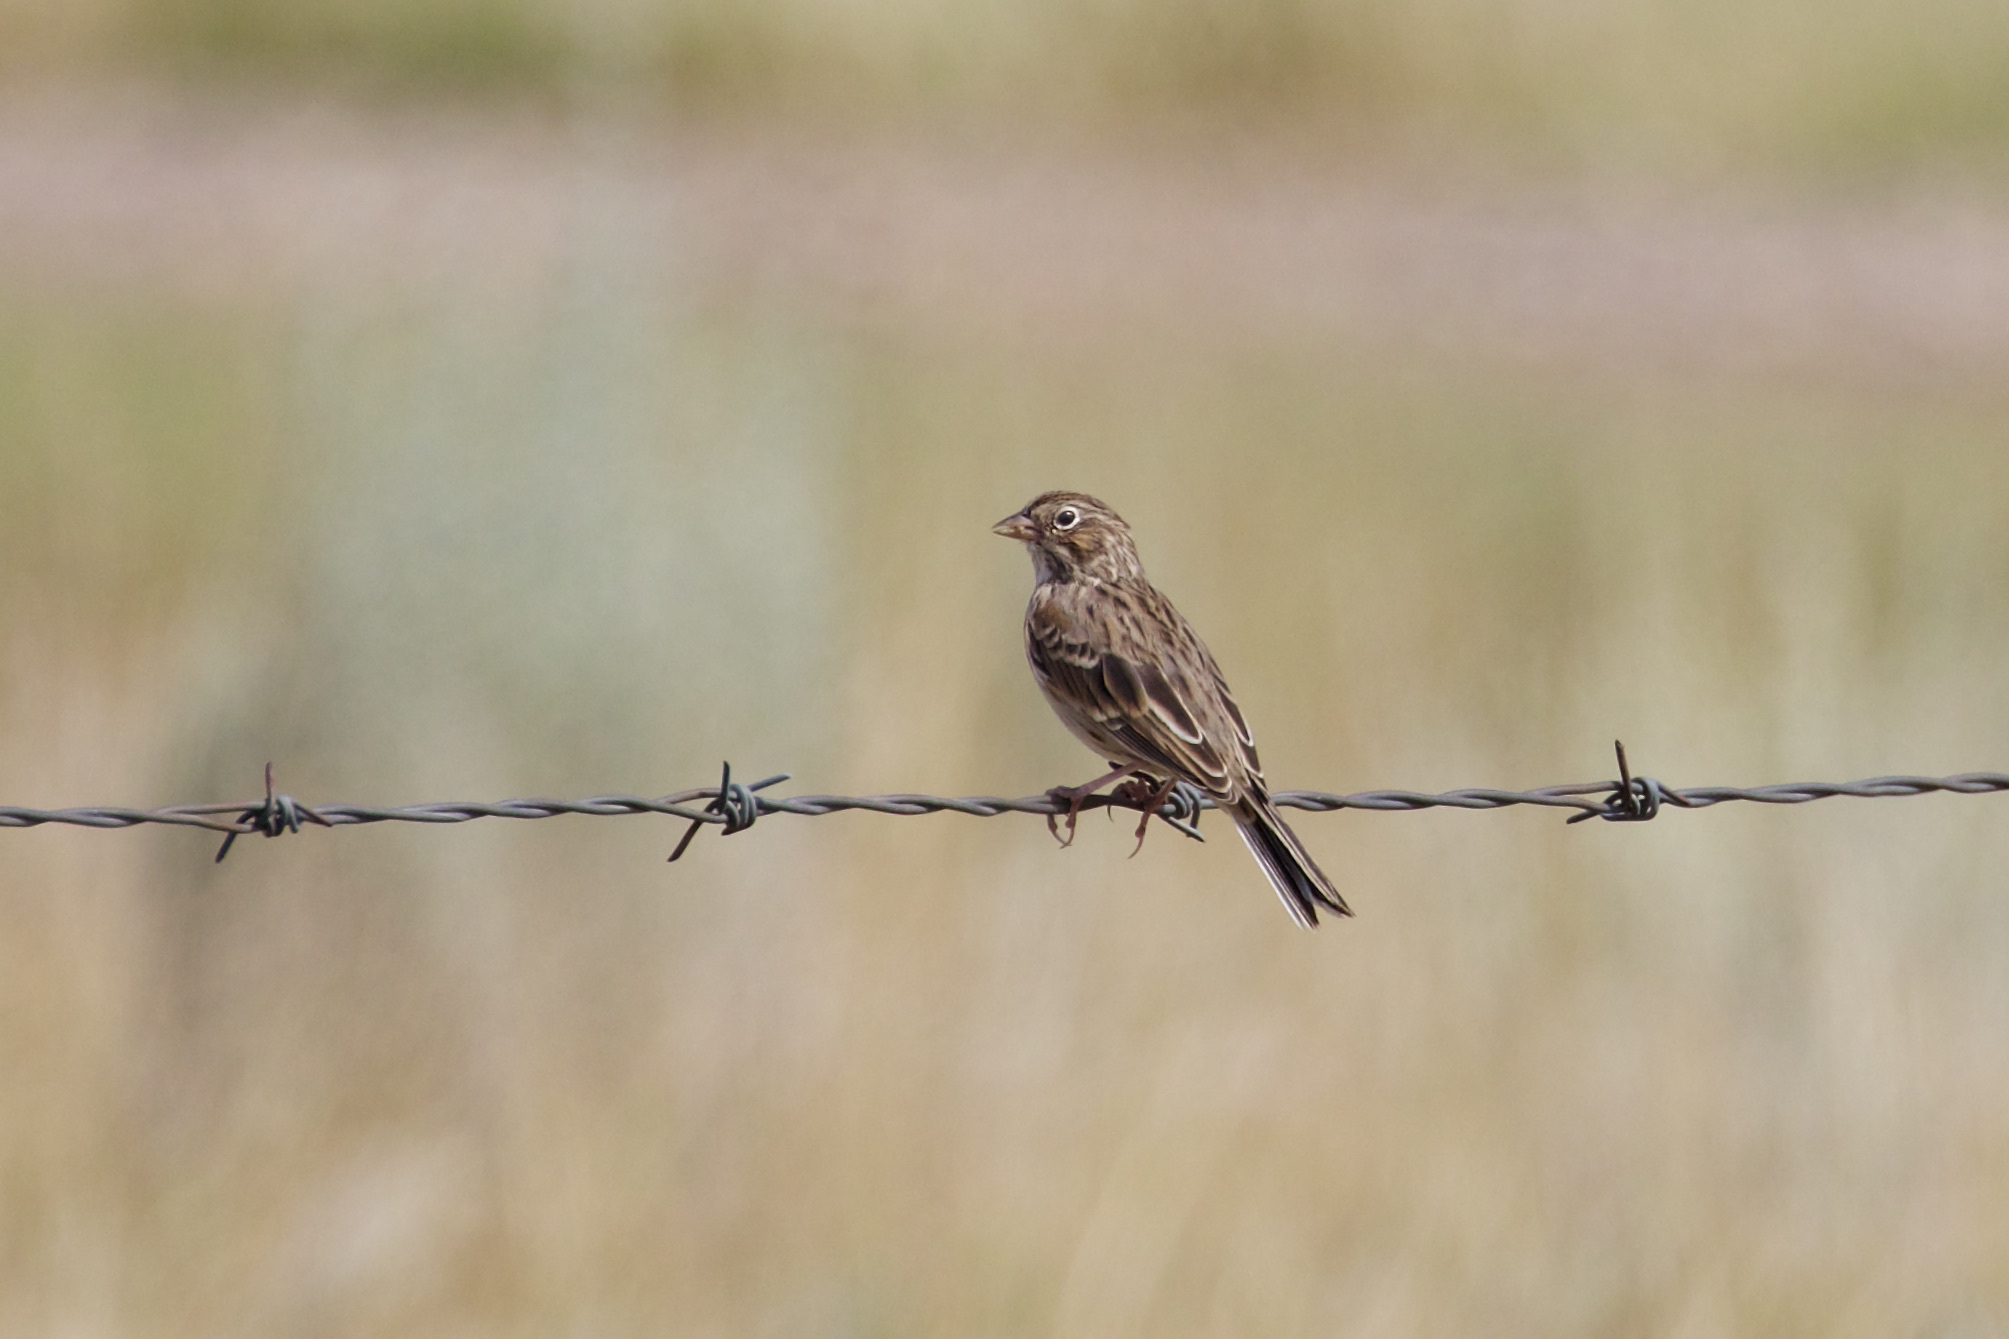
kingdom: Animalia
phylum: Chordata
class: Aves
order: Passeriformes
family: Passerellidae
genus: Pooecetes
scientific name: Pooecetes gramineus
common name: Vesper sparrow
